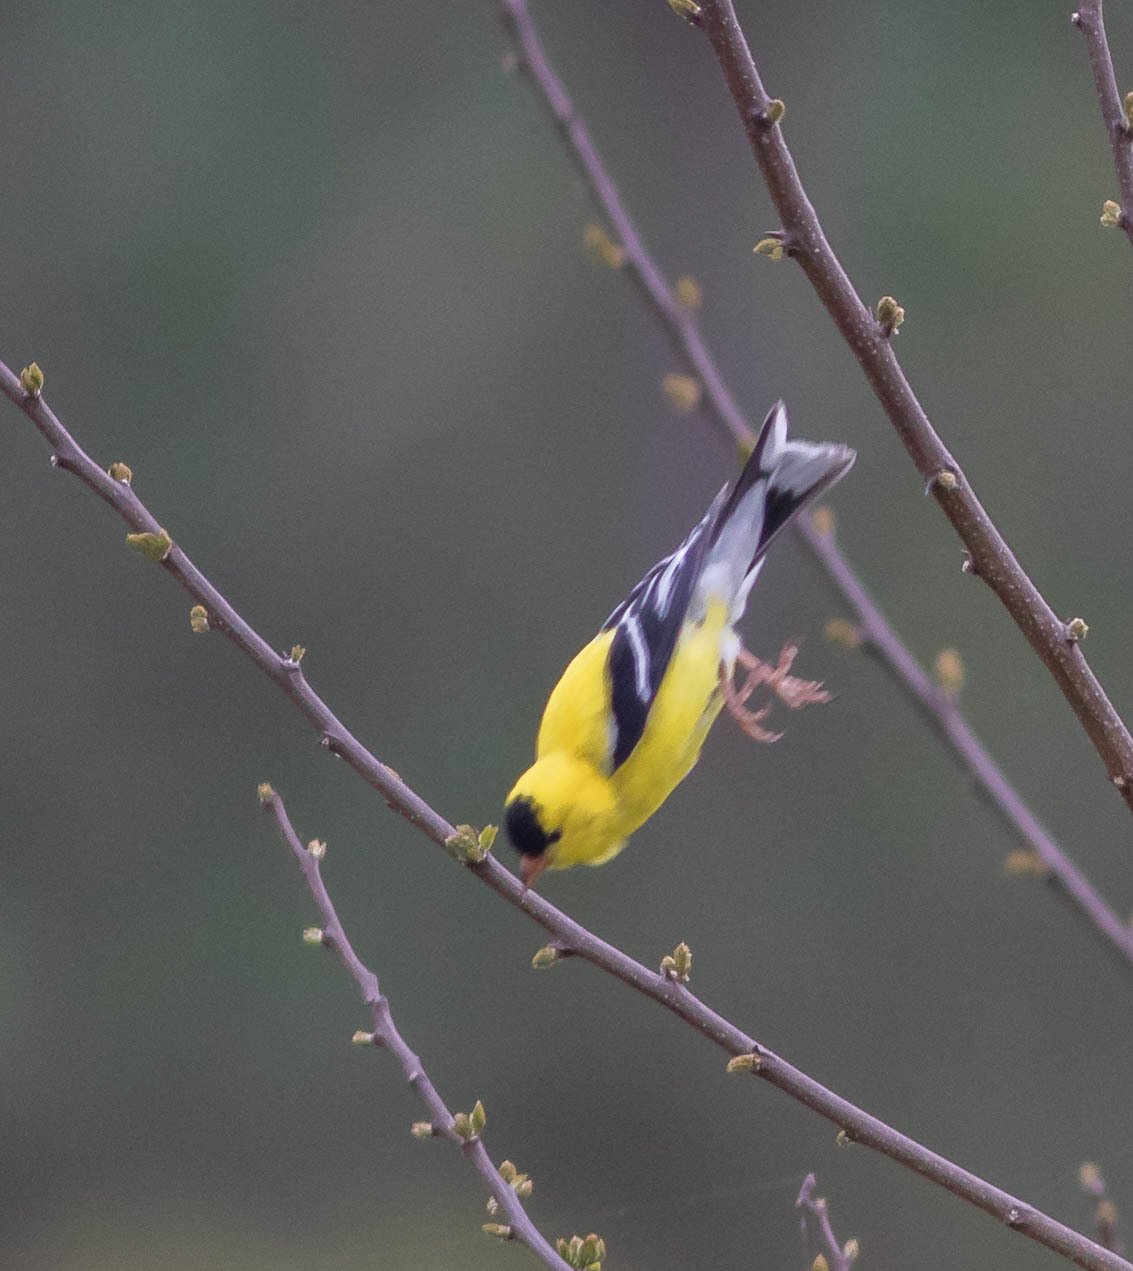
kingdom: Animalia
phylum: Chordata
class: Aves
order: Passeriformes
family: Fringillidae
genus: Spinus
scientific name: Spinus tristis
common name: American goldfinch
